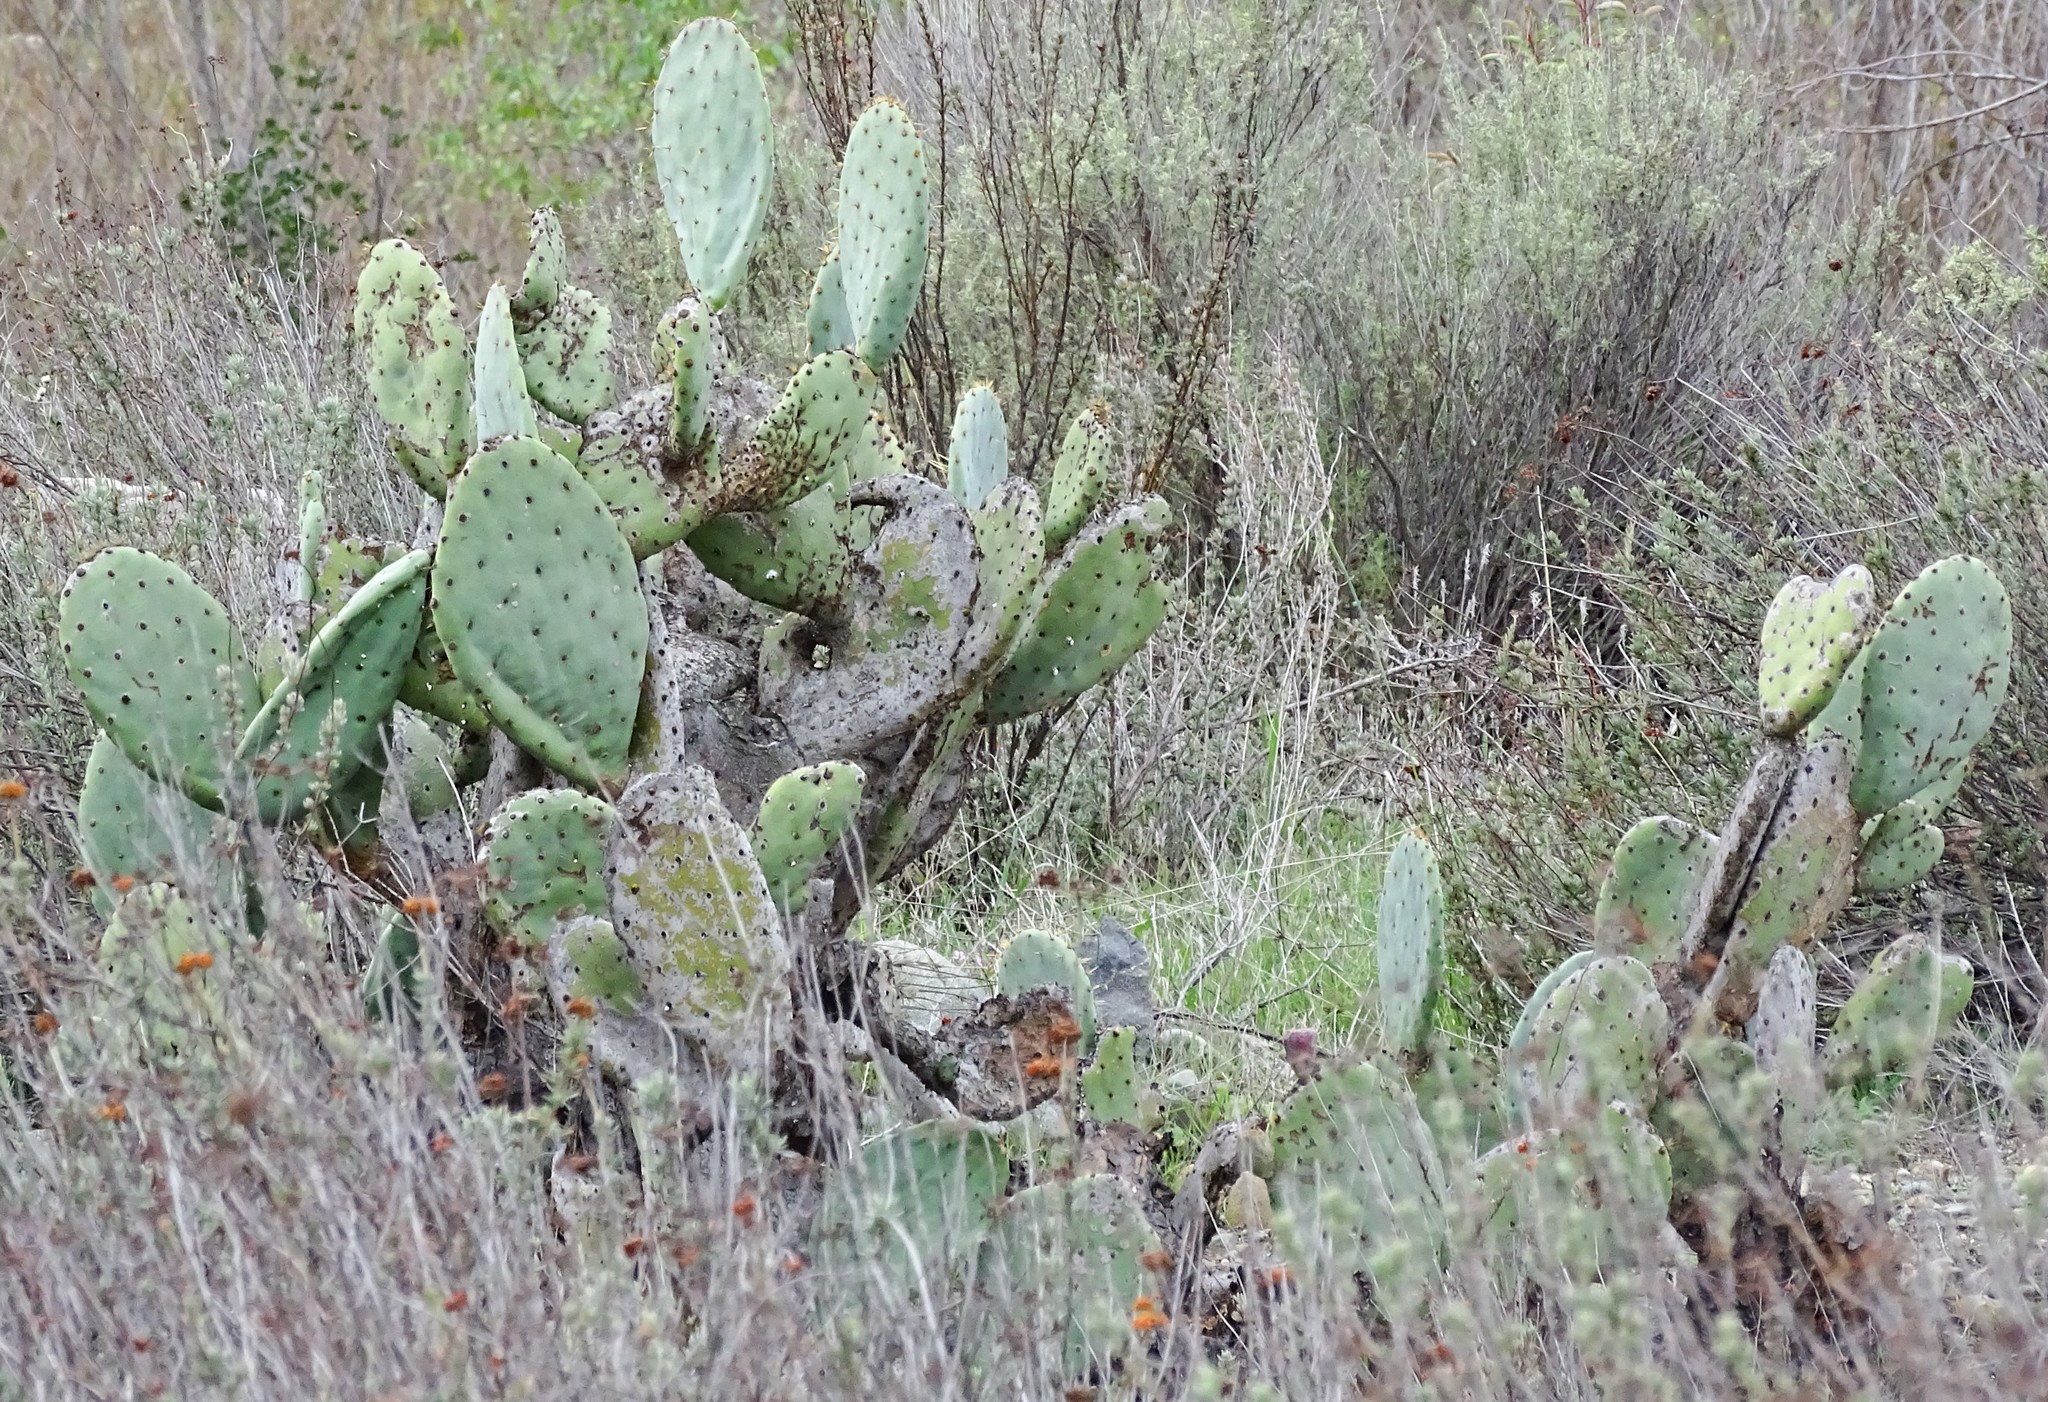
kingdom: Plantae
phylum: Tracheophyta
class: Magnoliopsida
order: Caryophyllales
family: Cactaceae
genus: Opuntia
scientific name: Opuntia
